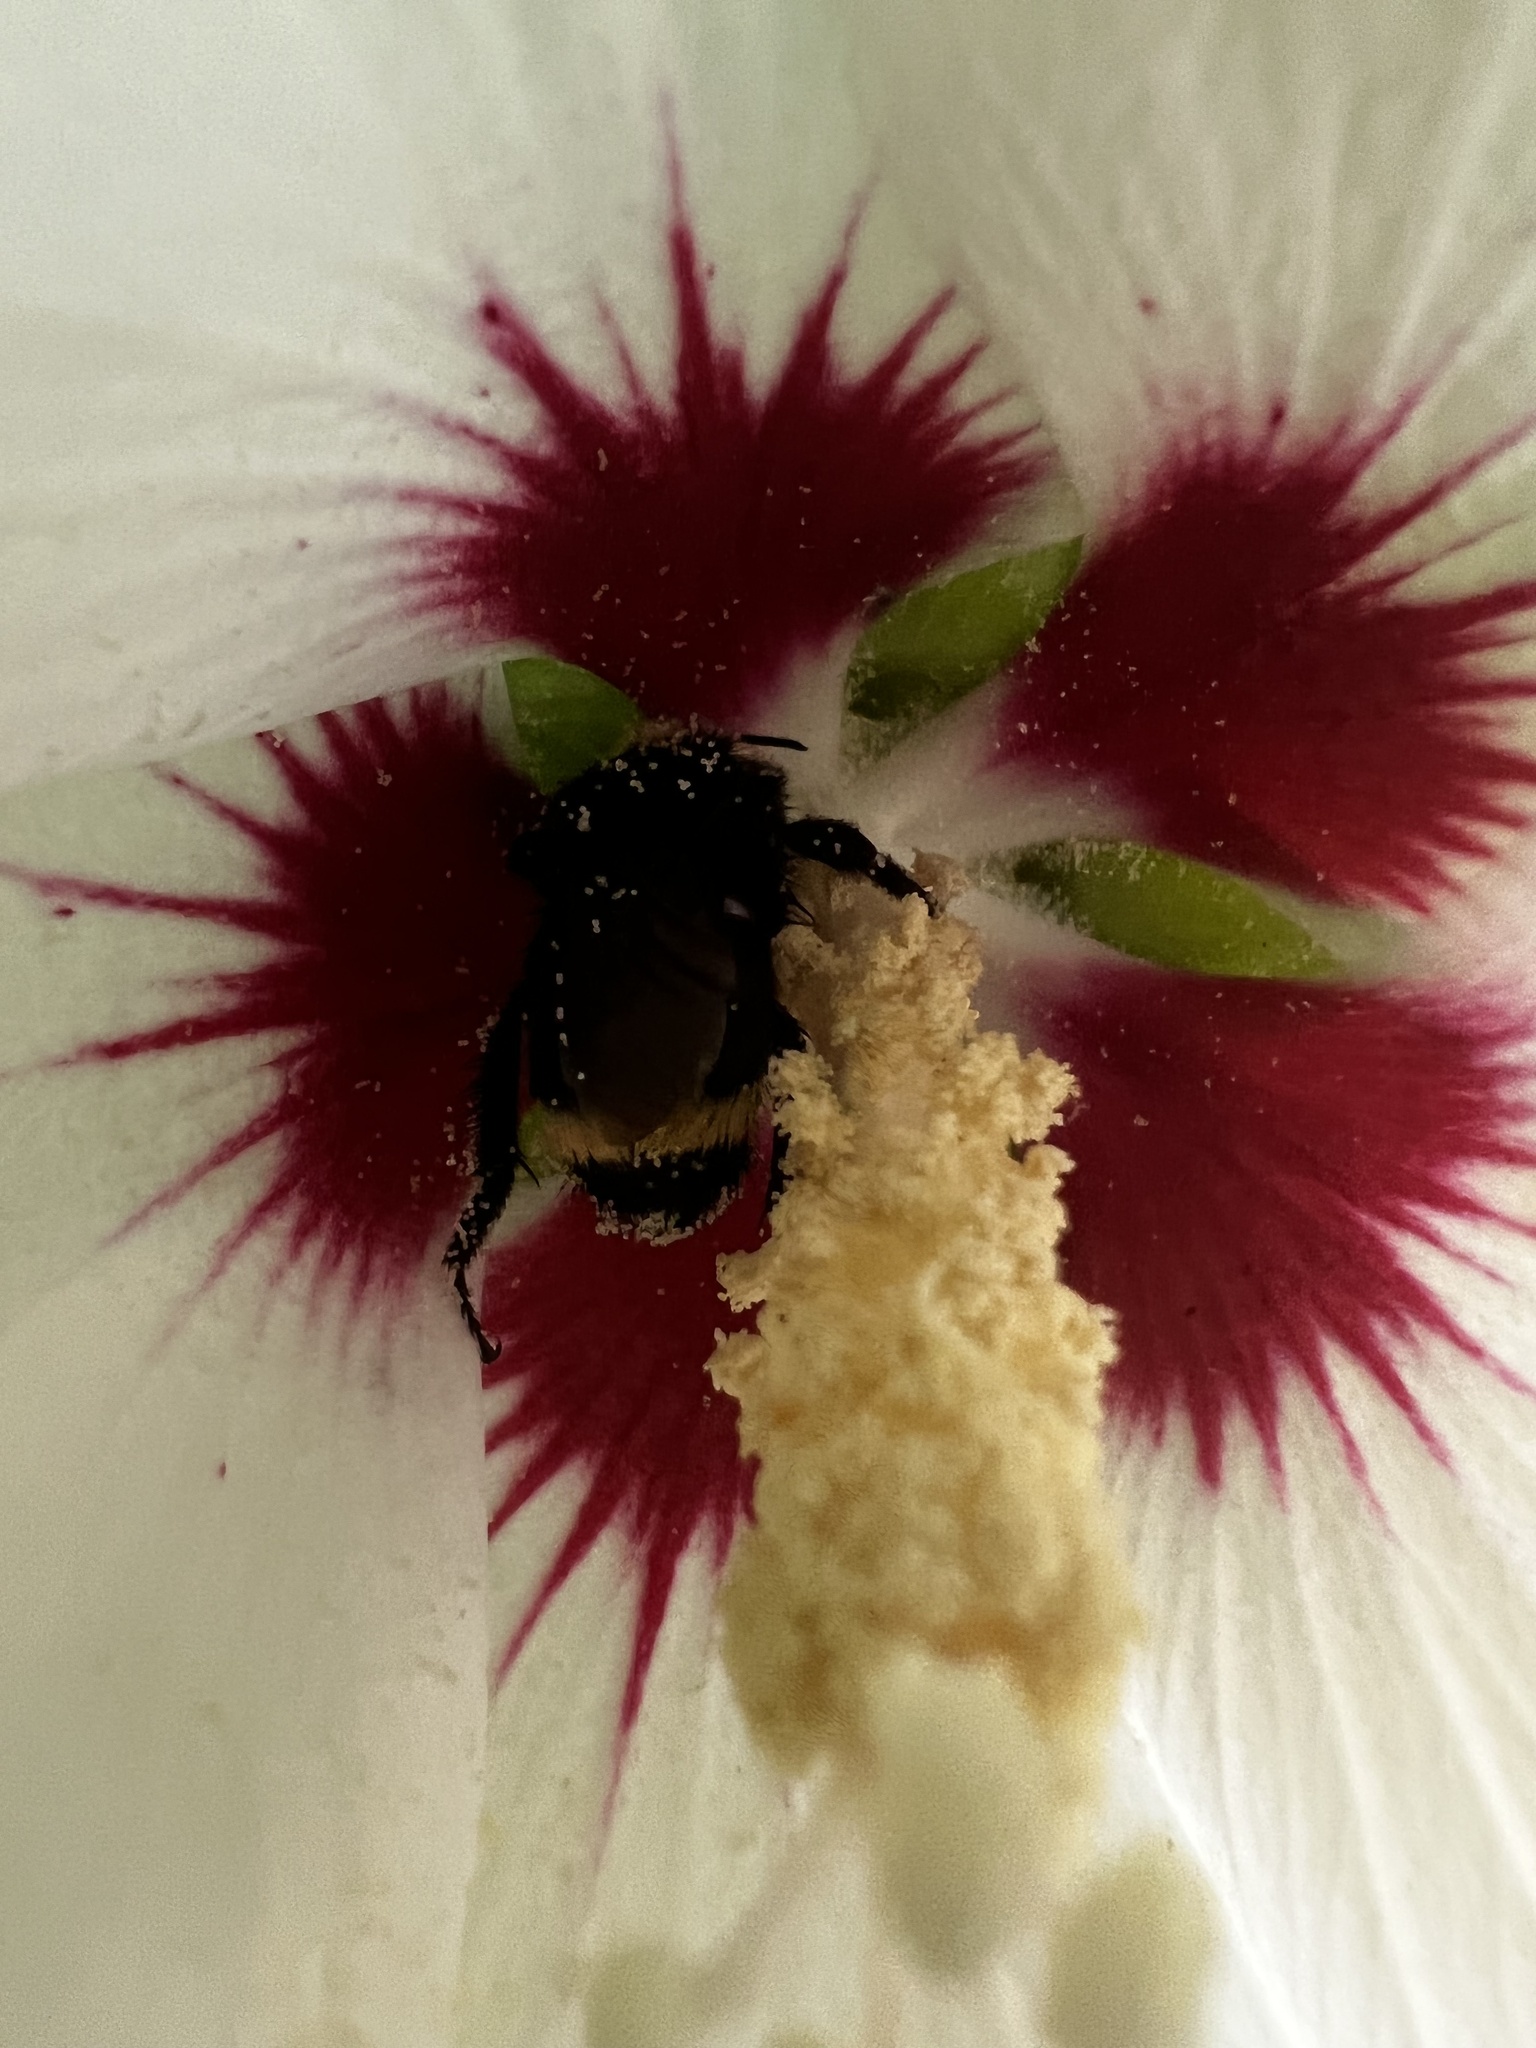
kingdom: Animalia
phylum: Arthropoda
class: Insecta
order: Hymenoptera
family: Apidae
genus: Bombus
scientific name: Bombus vosnesenskii
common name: Vosnesensky bumble bee
